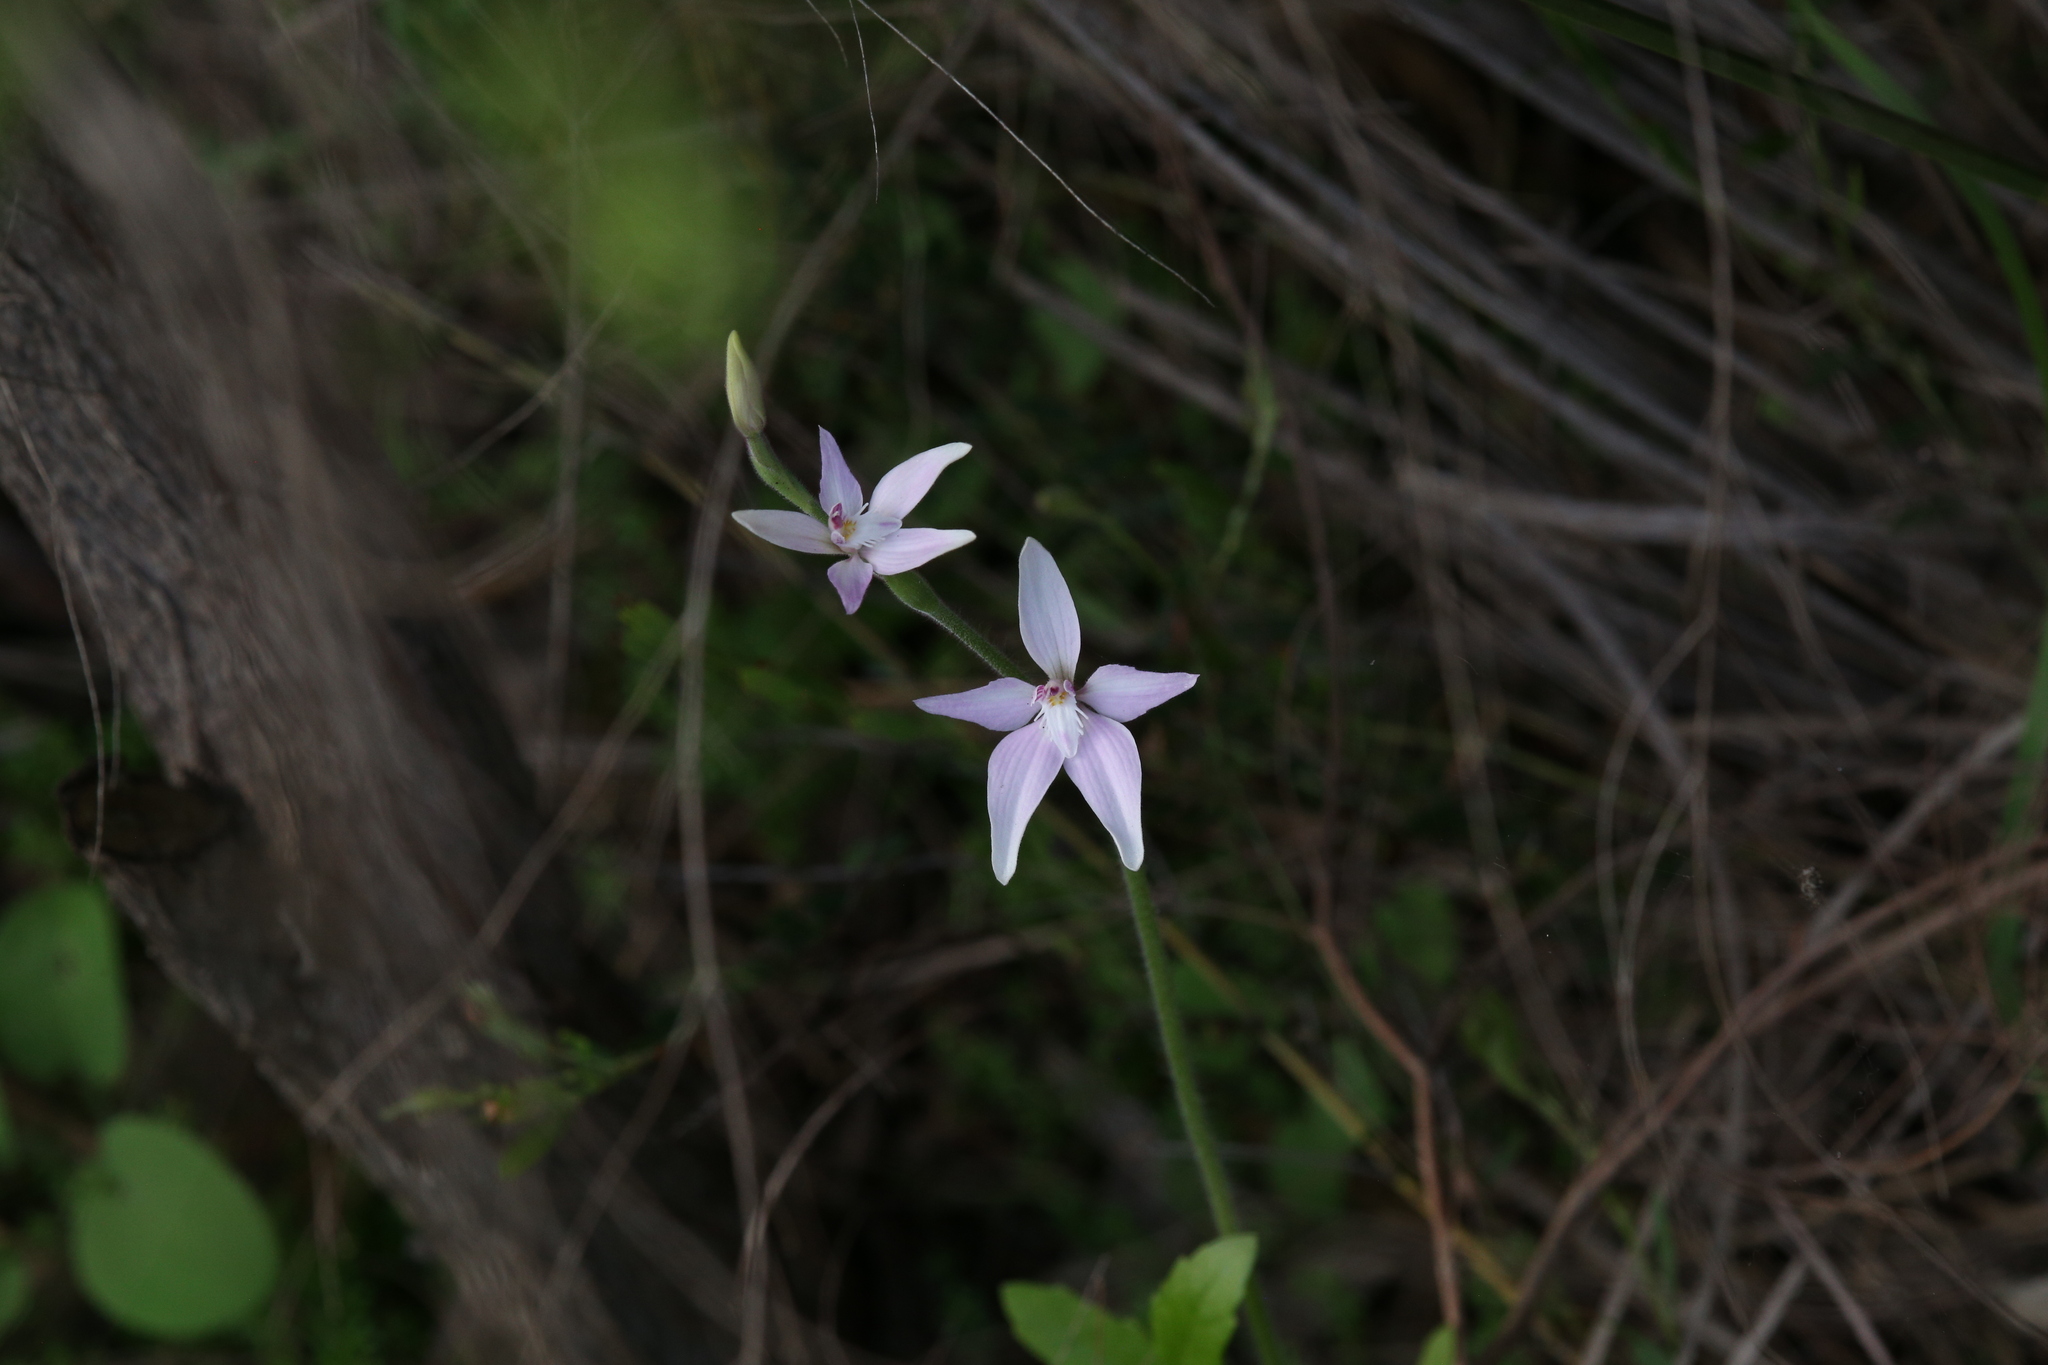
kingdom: Plantae
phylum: Tracheophyta
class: Liliopsida
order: Asparagales
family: Orchidaceae
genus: Caladenia
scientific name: Caladenia latifolia
